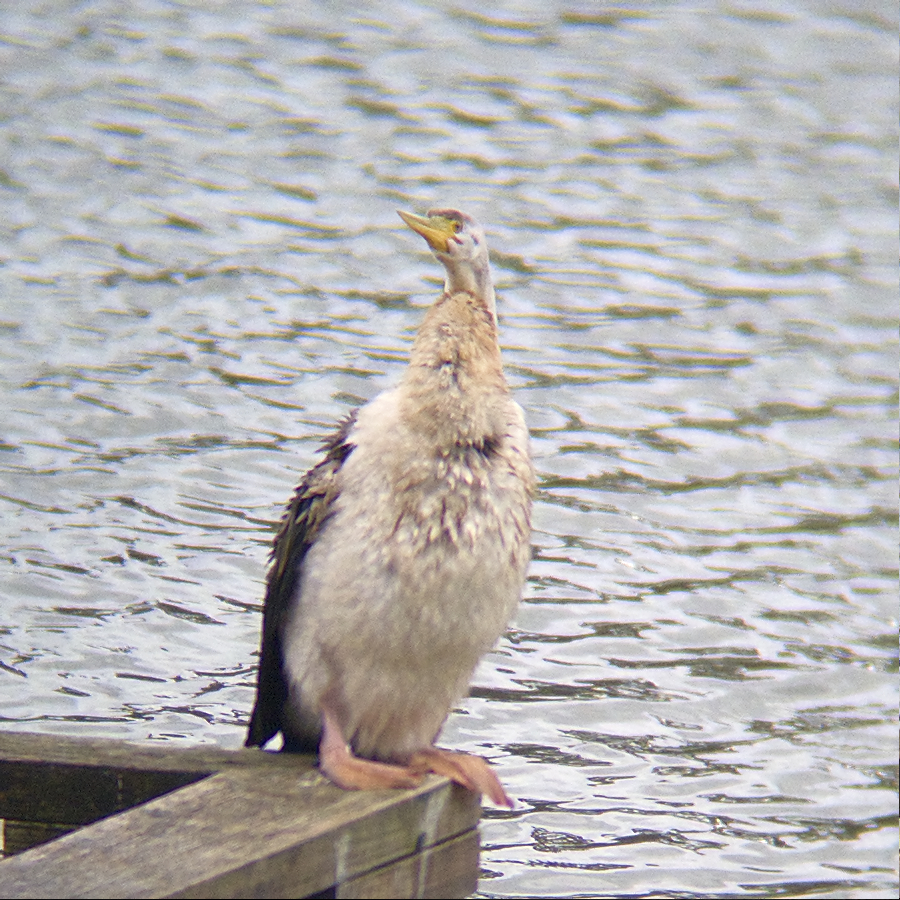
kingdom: Animalia
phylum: Chordata
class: Aves
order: Suliformes
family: Anhingidae
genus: Anhinga
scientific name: Anhinga novaehollandiae
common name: Australasian darter
